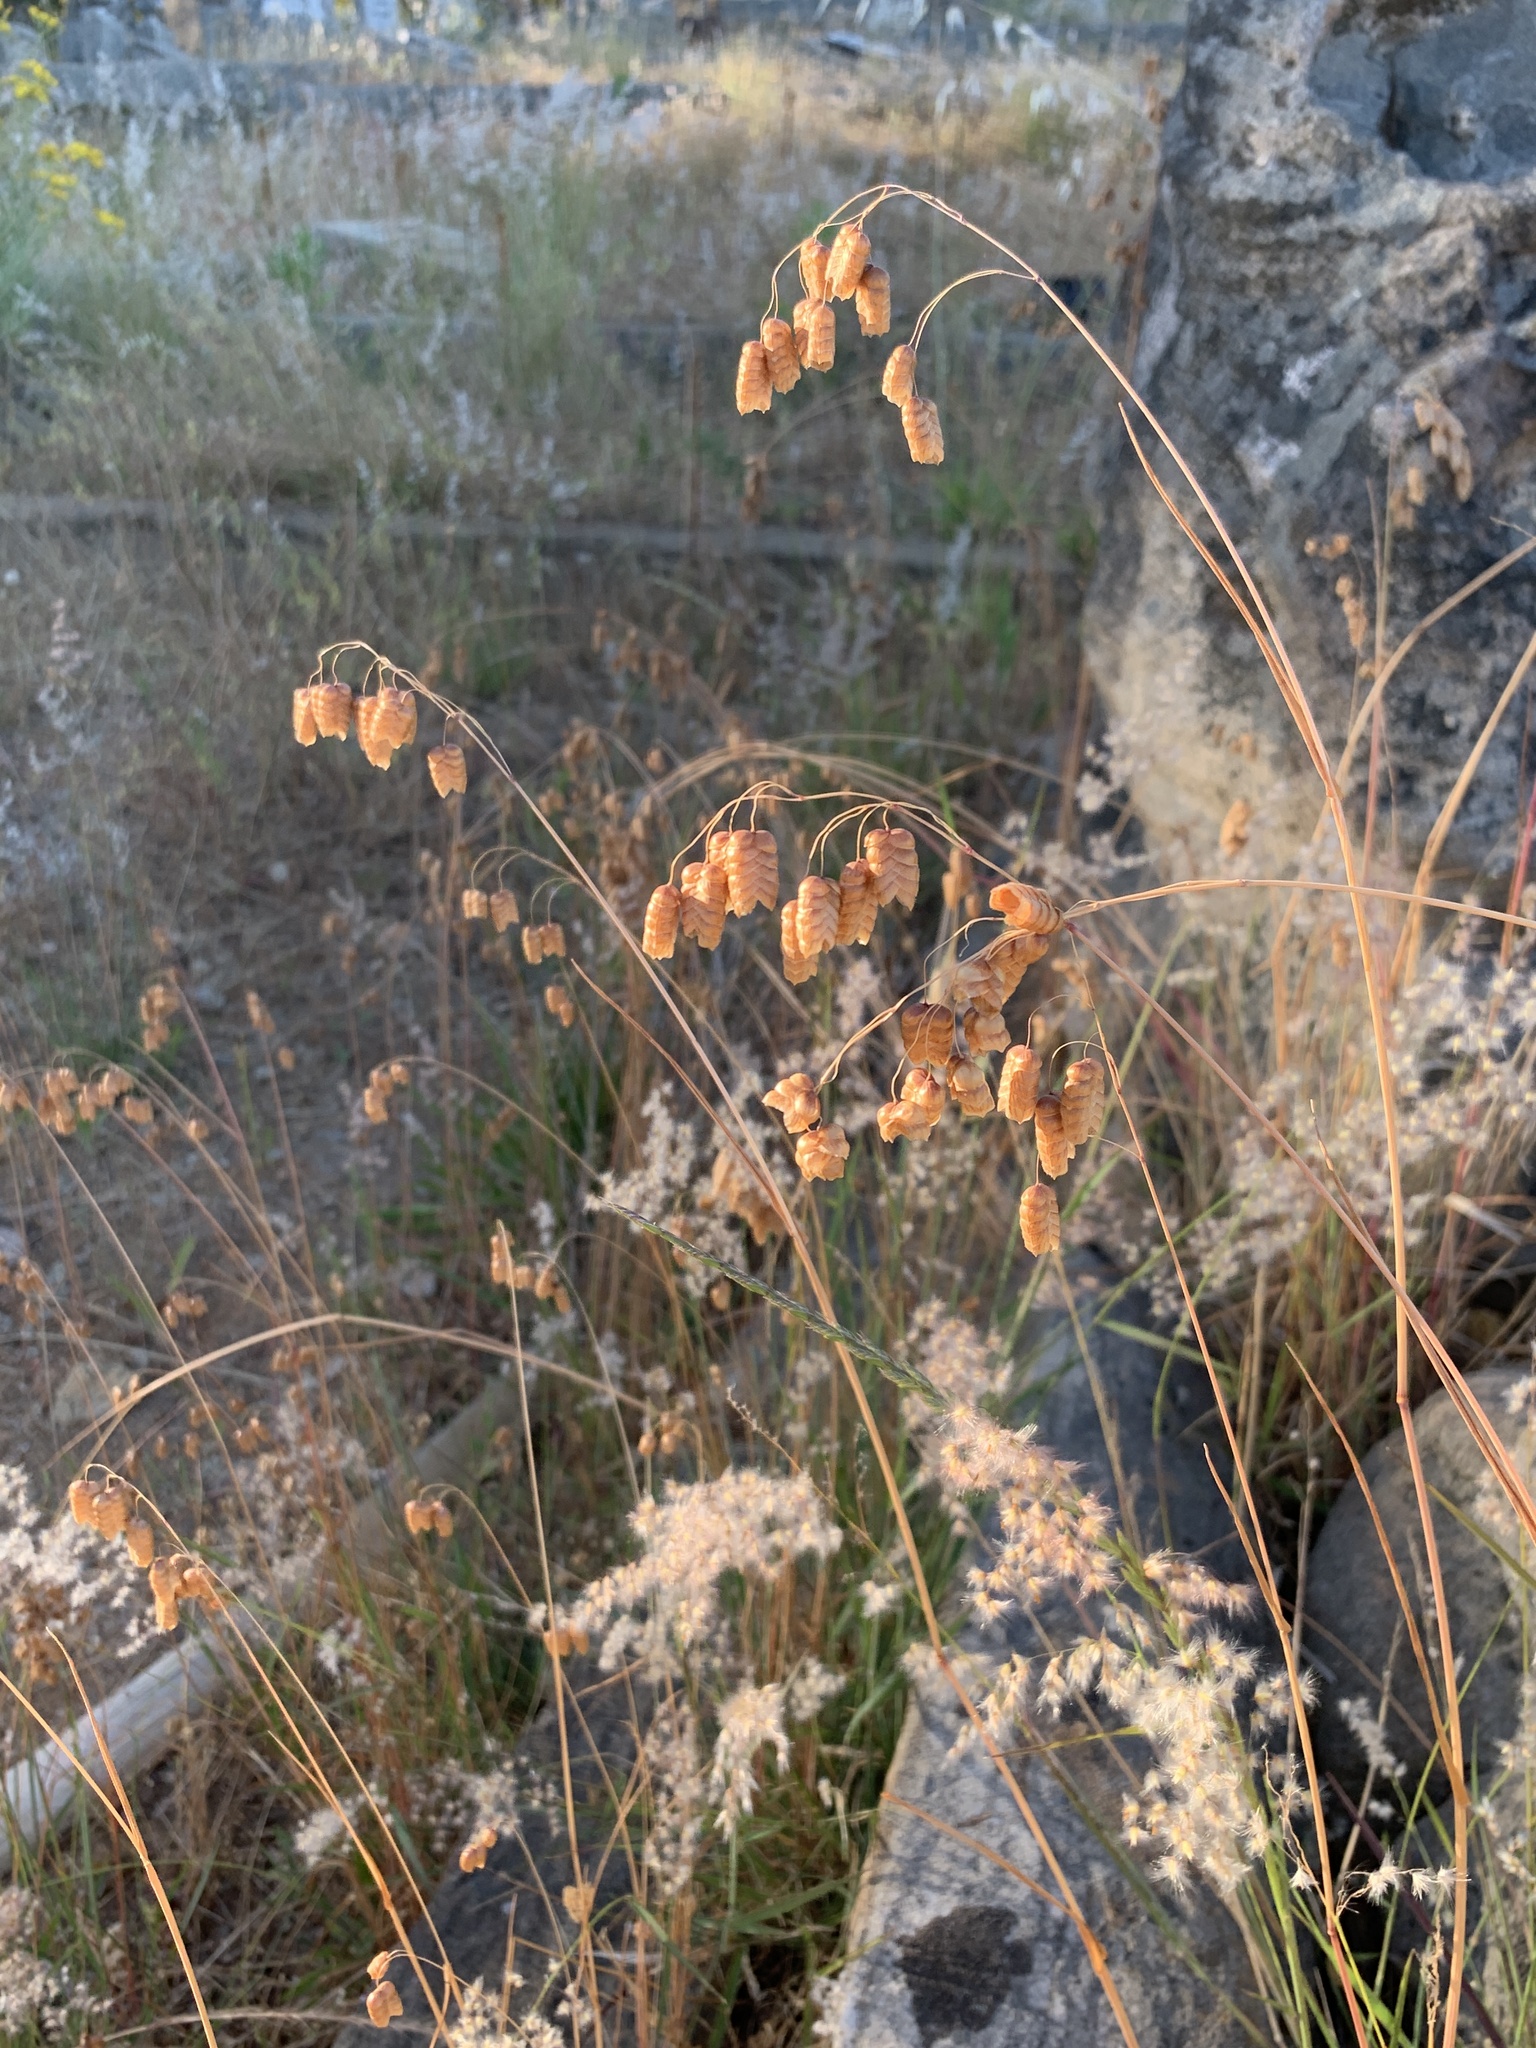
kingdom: Plantae
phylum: Tracheophyta
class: Liliopsida
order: Poales
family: Poaceae
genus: Briza
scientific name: Briza maxima
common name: Big quakinggrass
